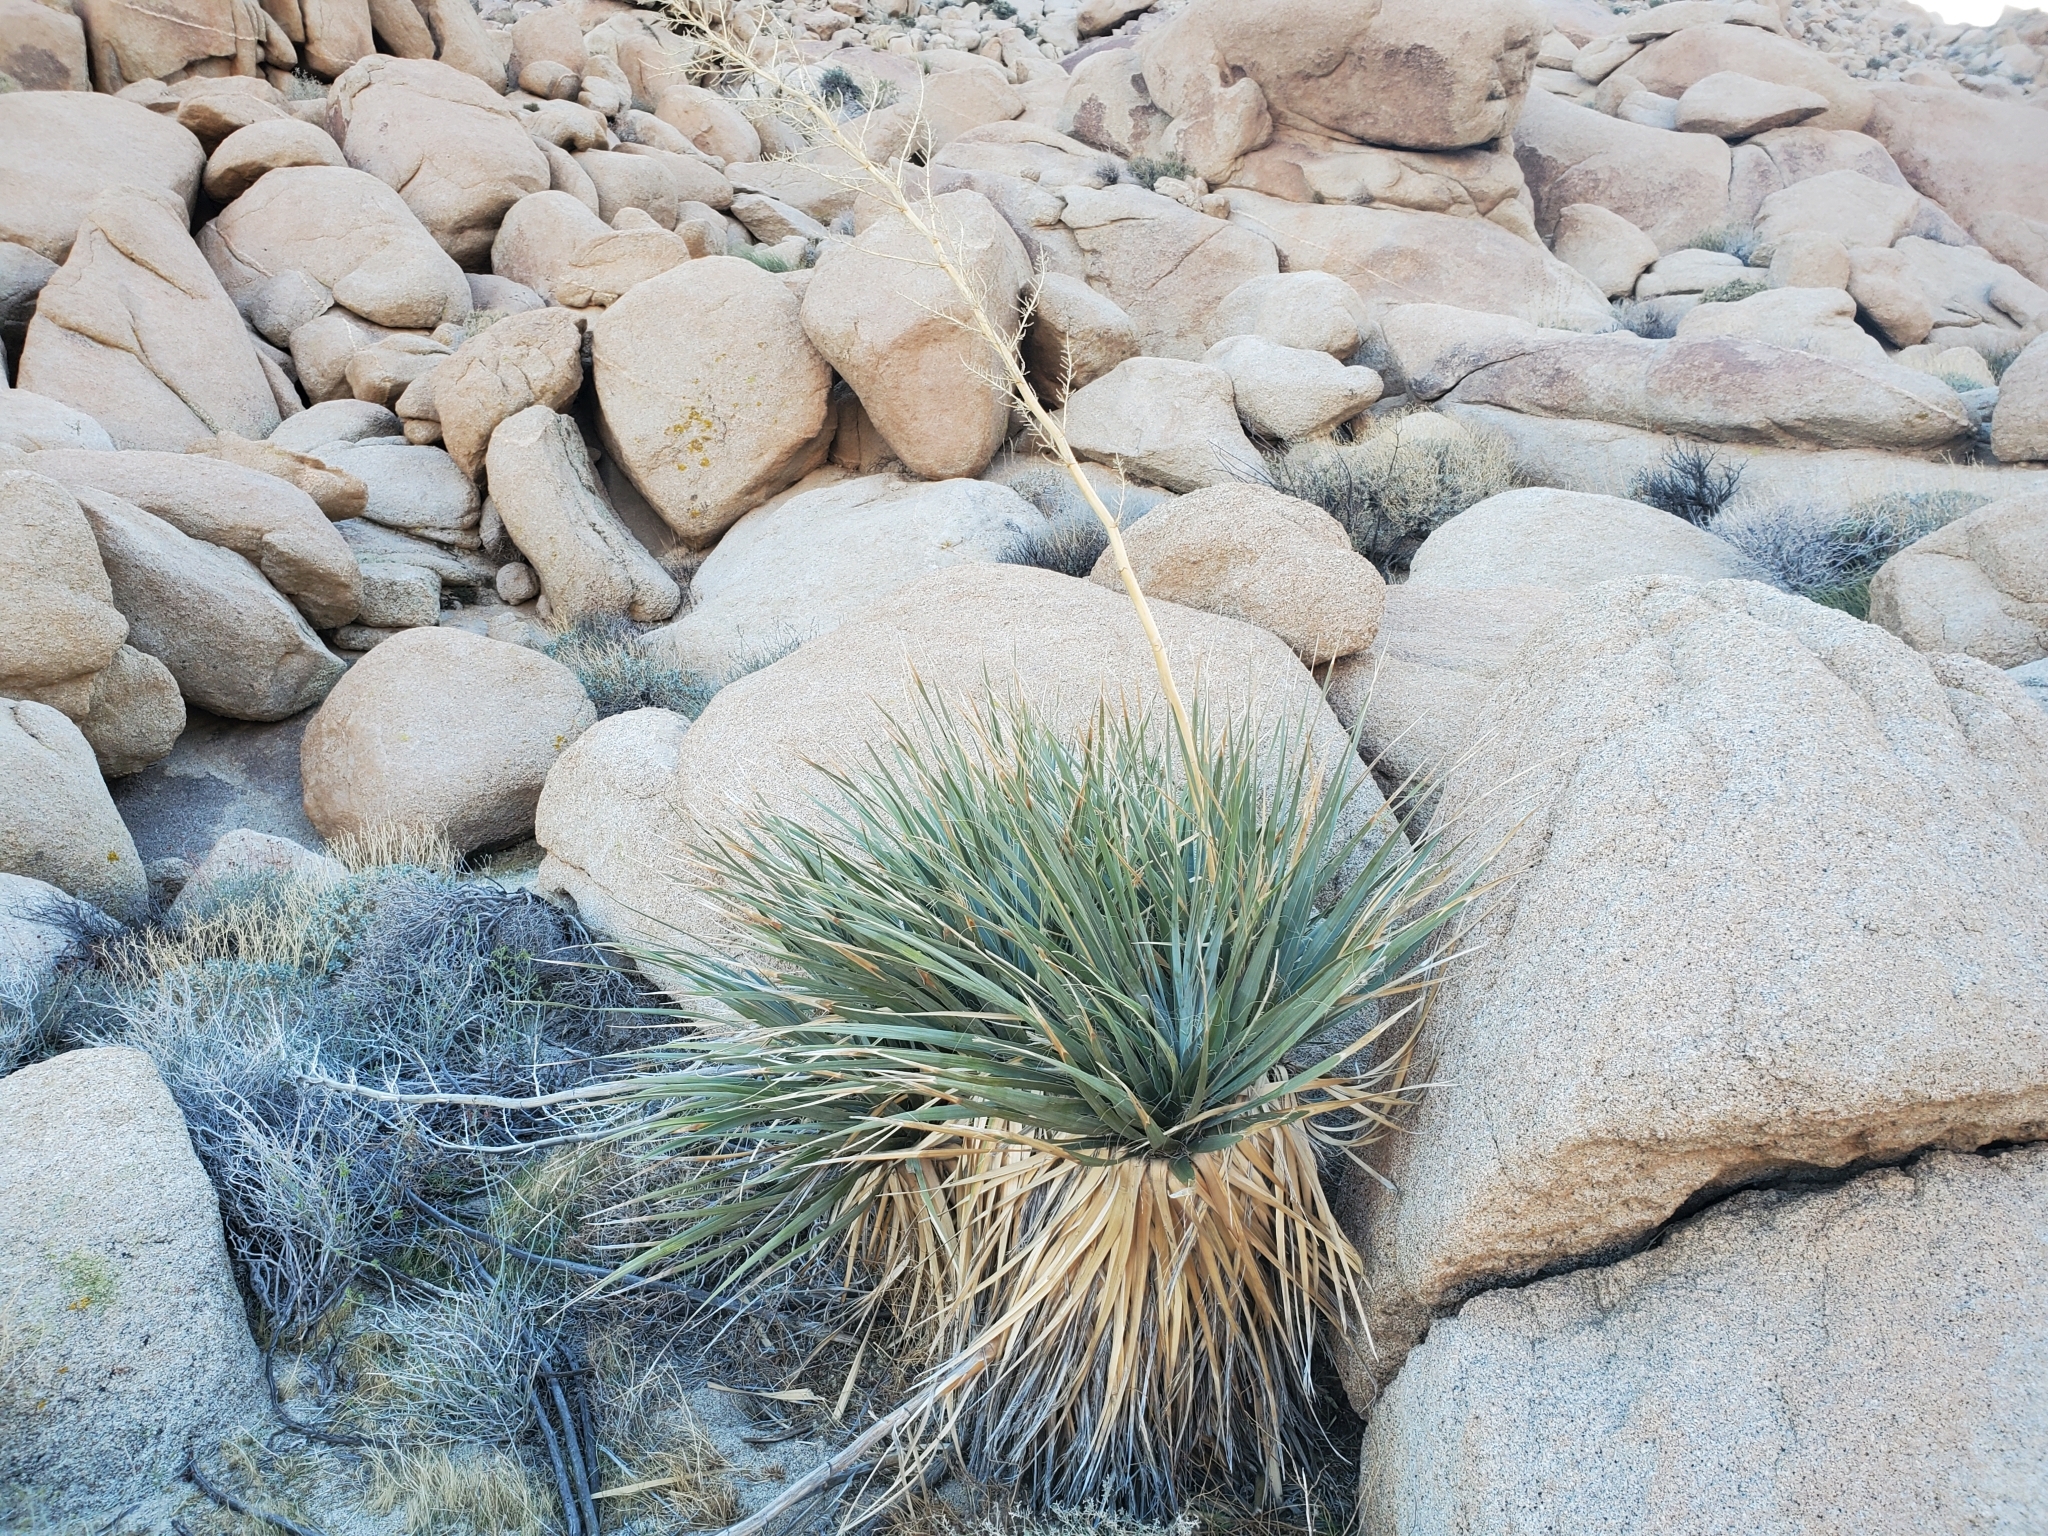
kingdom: Plantae
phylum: Tracheophyta
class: Liliopsida
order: Asparagales
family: Asparagaceae
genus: Nolina
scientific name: Nolina bigelovii
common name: Bigelow bear-grass
